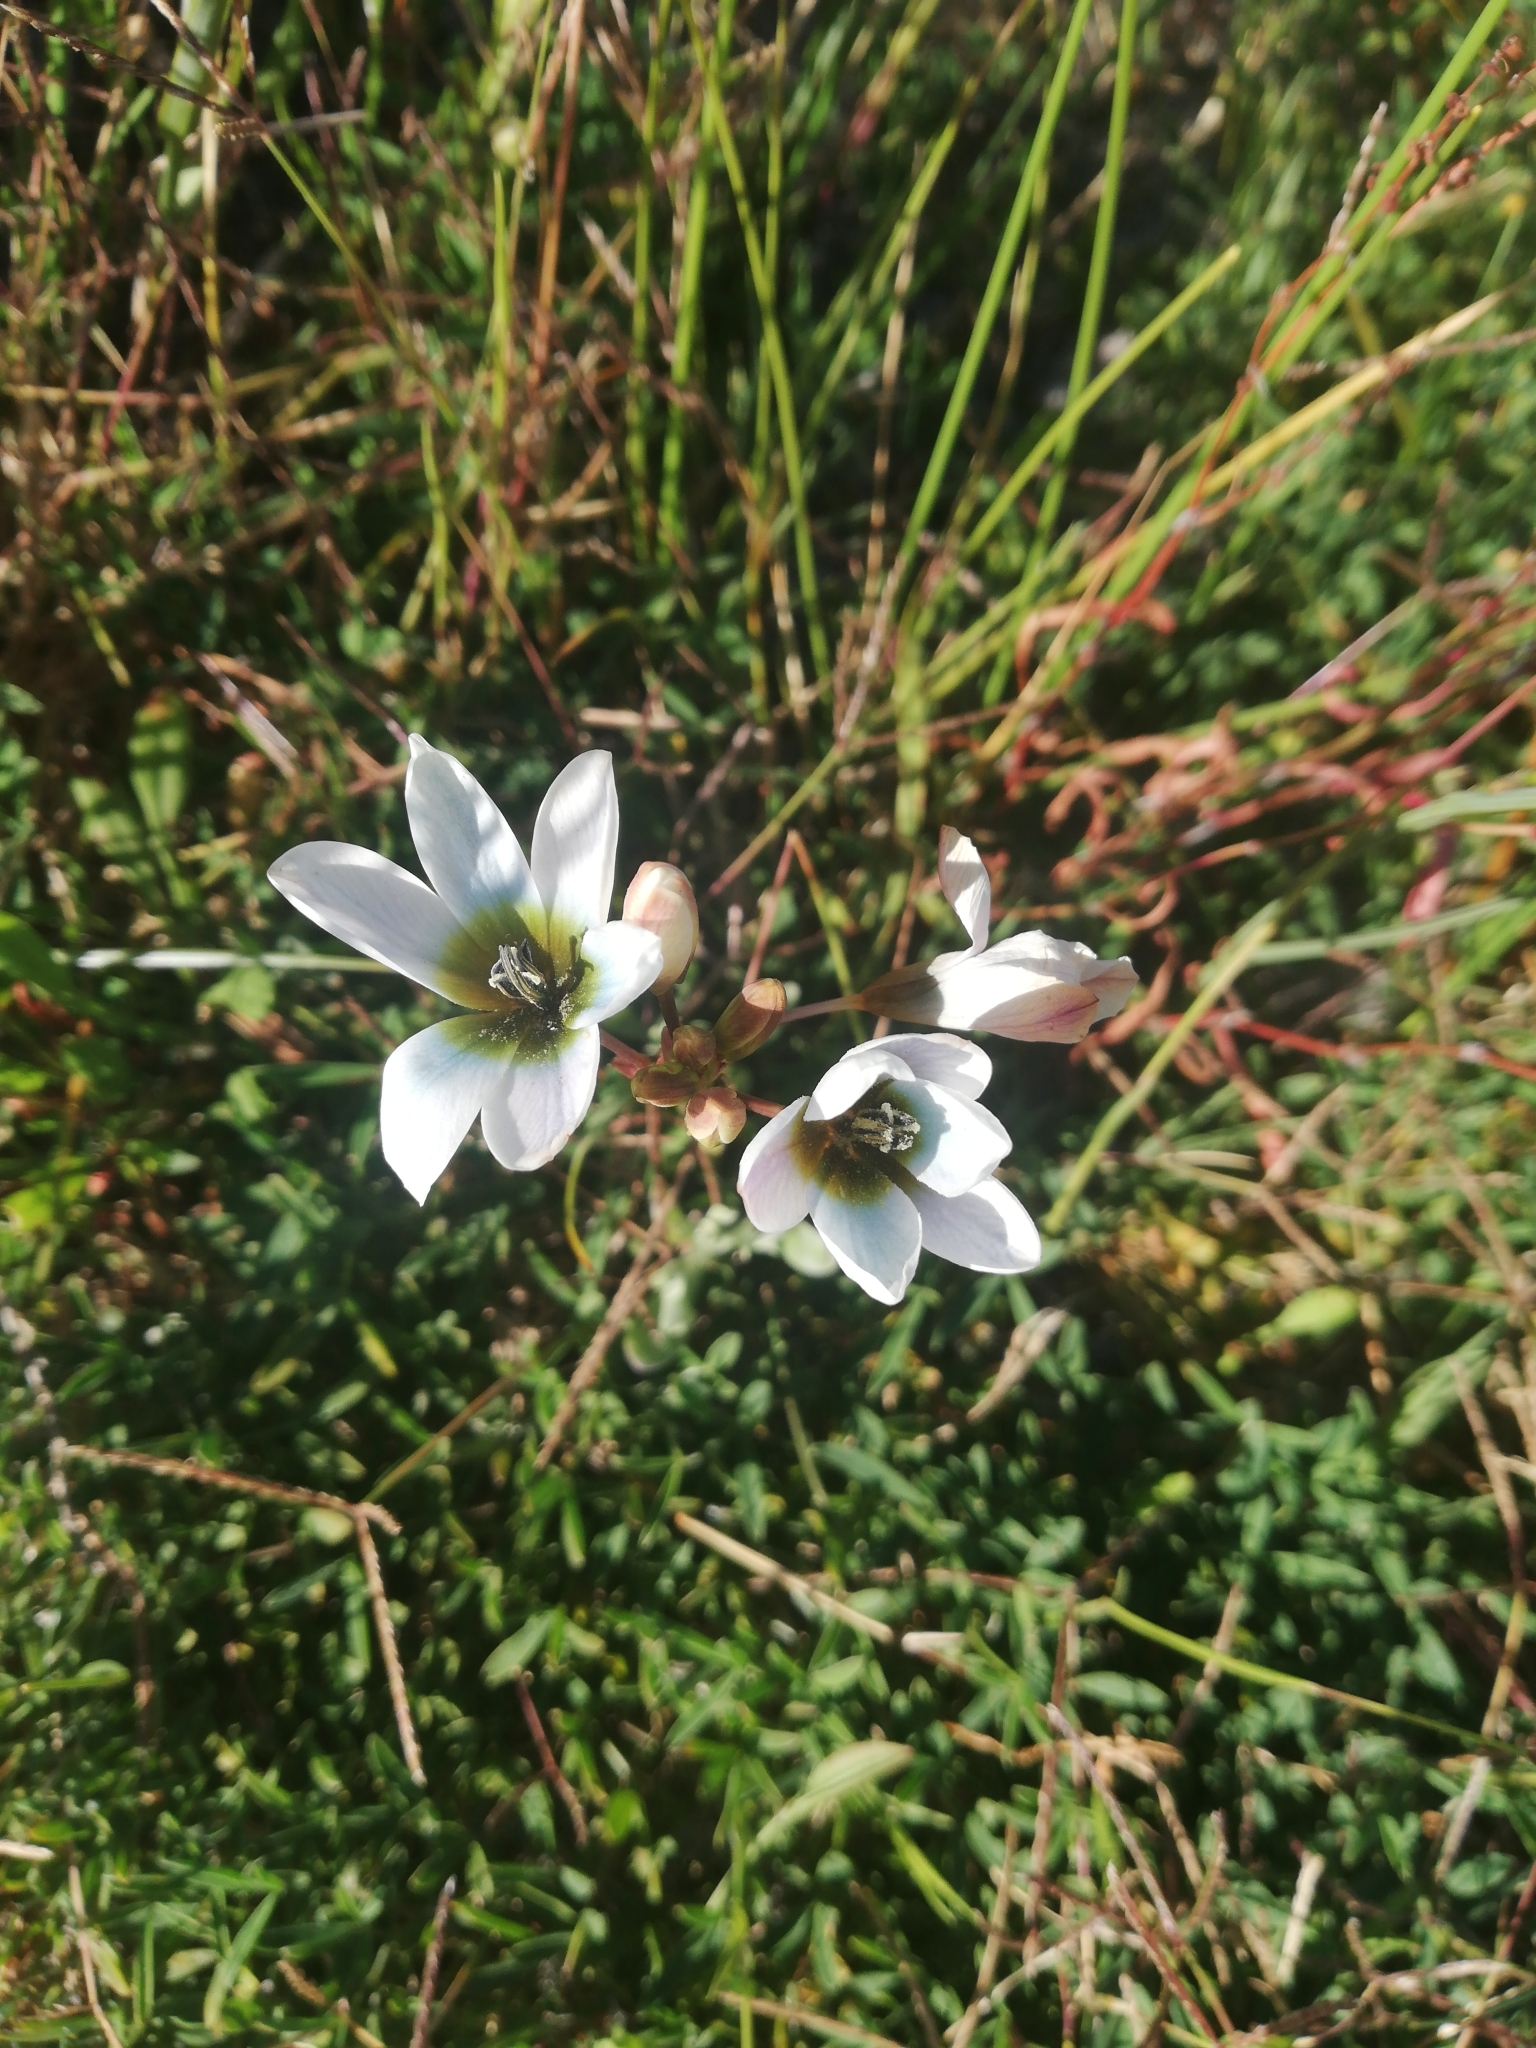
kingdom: Plantae
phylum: Tracheophyta
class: Liliopsida
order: Asparagales
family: Iridaceae
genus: Ixia
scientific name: Ixia monadelpha
